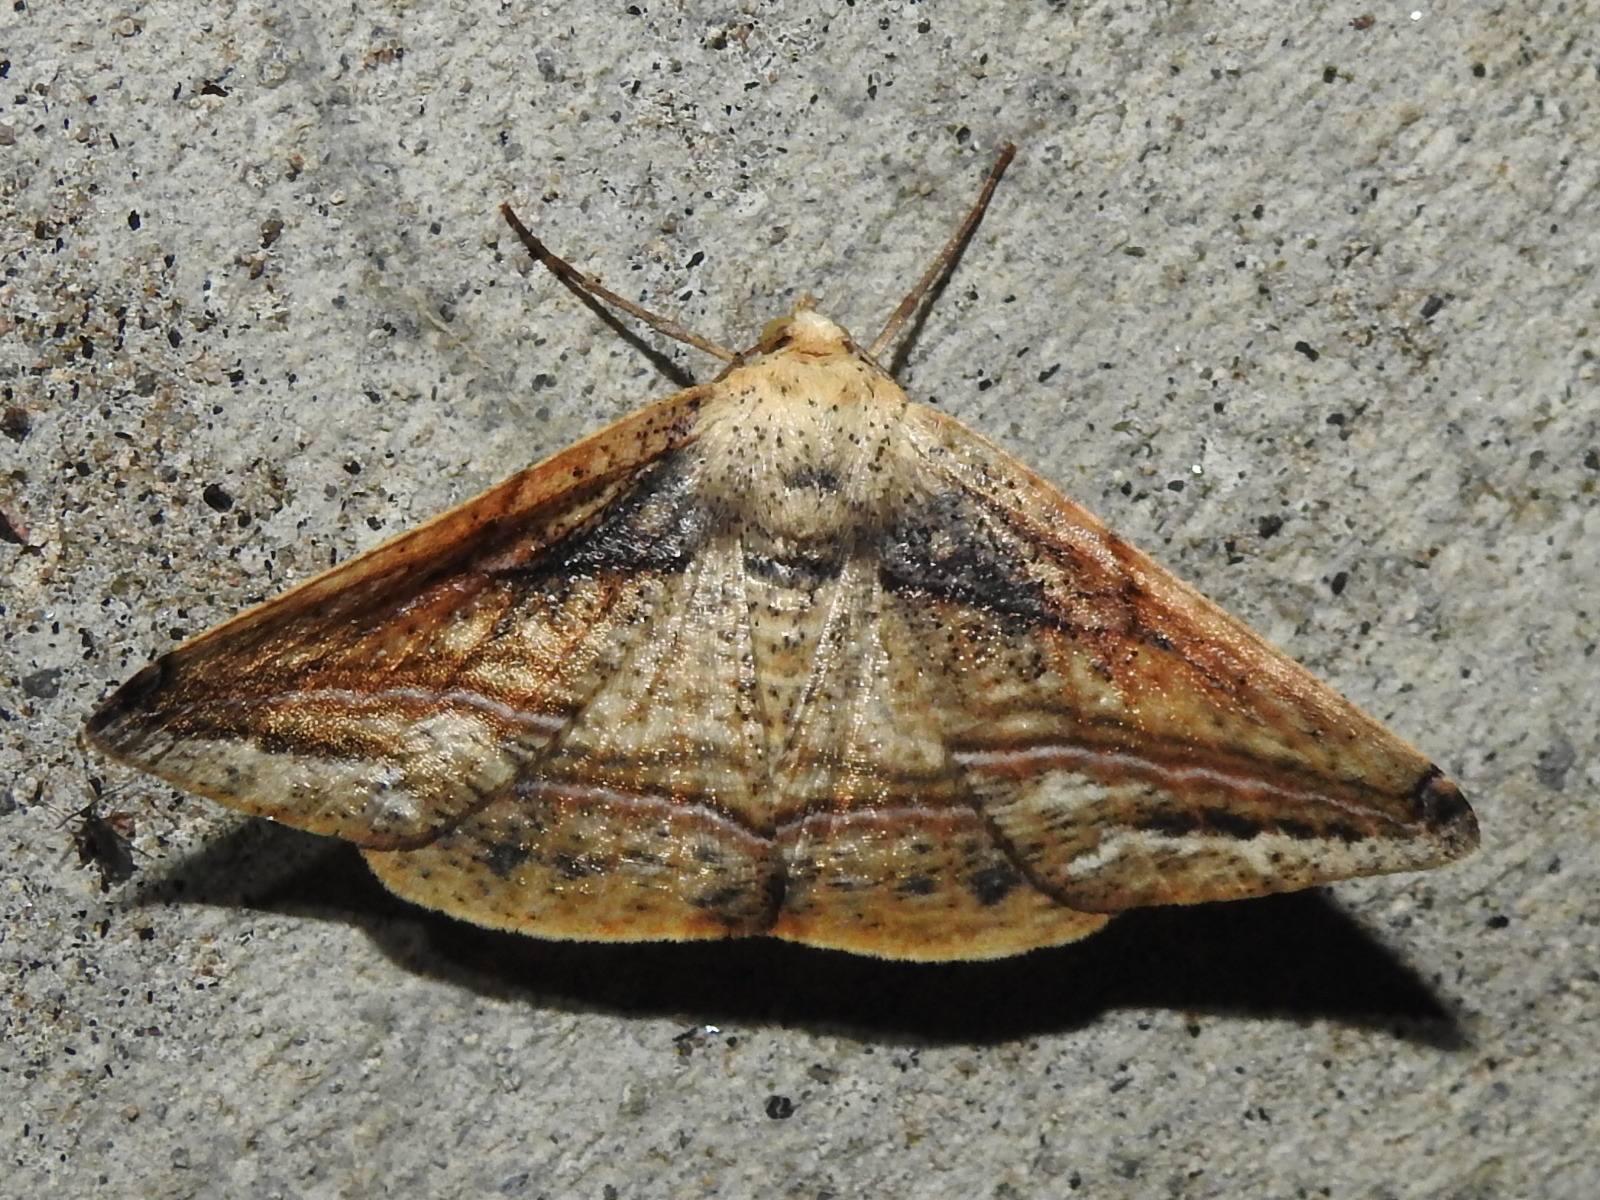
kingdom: Animalia
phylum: Arthropoda
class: Insecta
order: Lepidoptera
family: Geometridae
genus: Bassania
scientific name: Bassania crocallinaria
